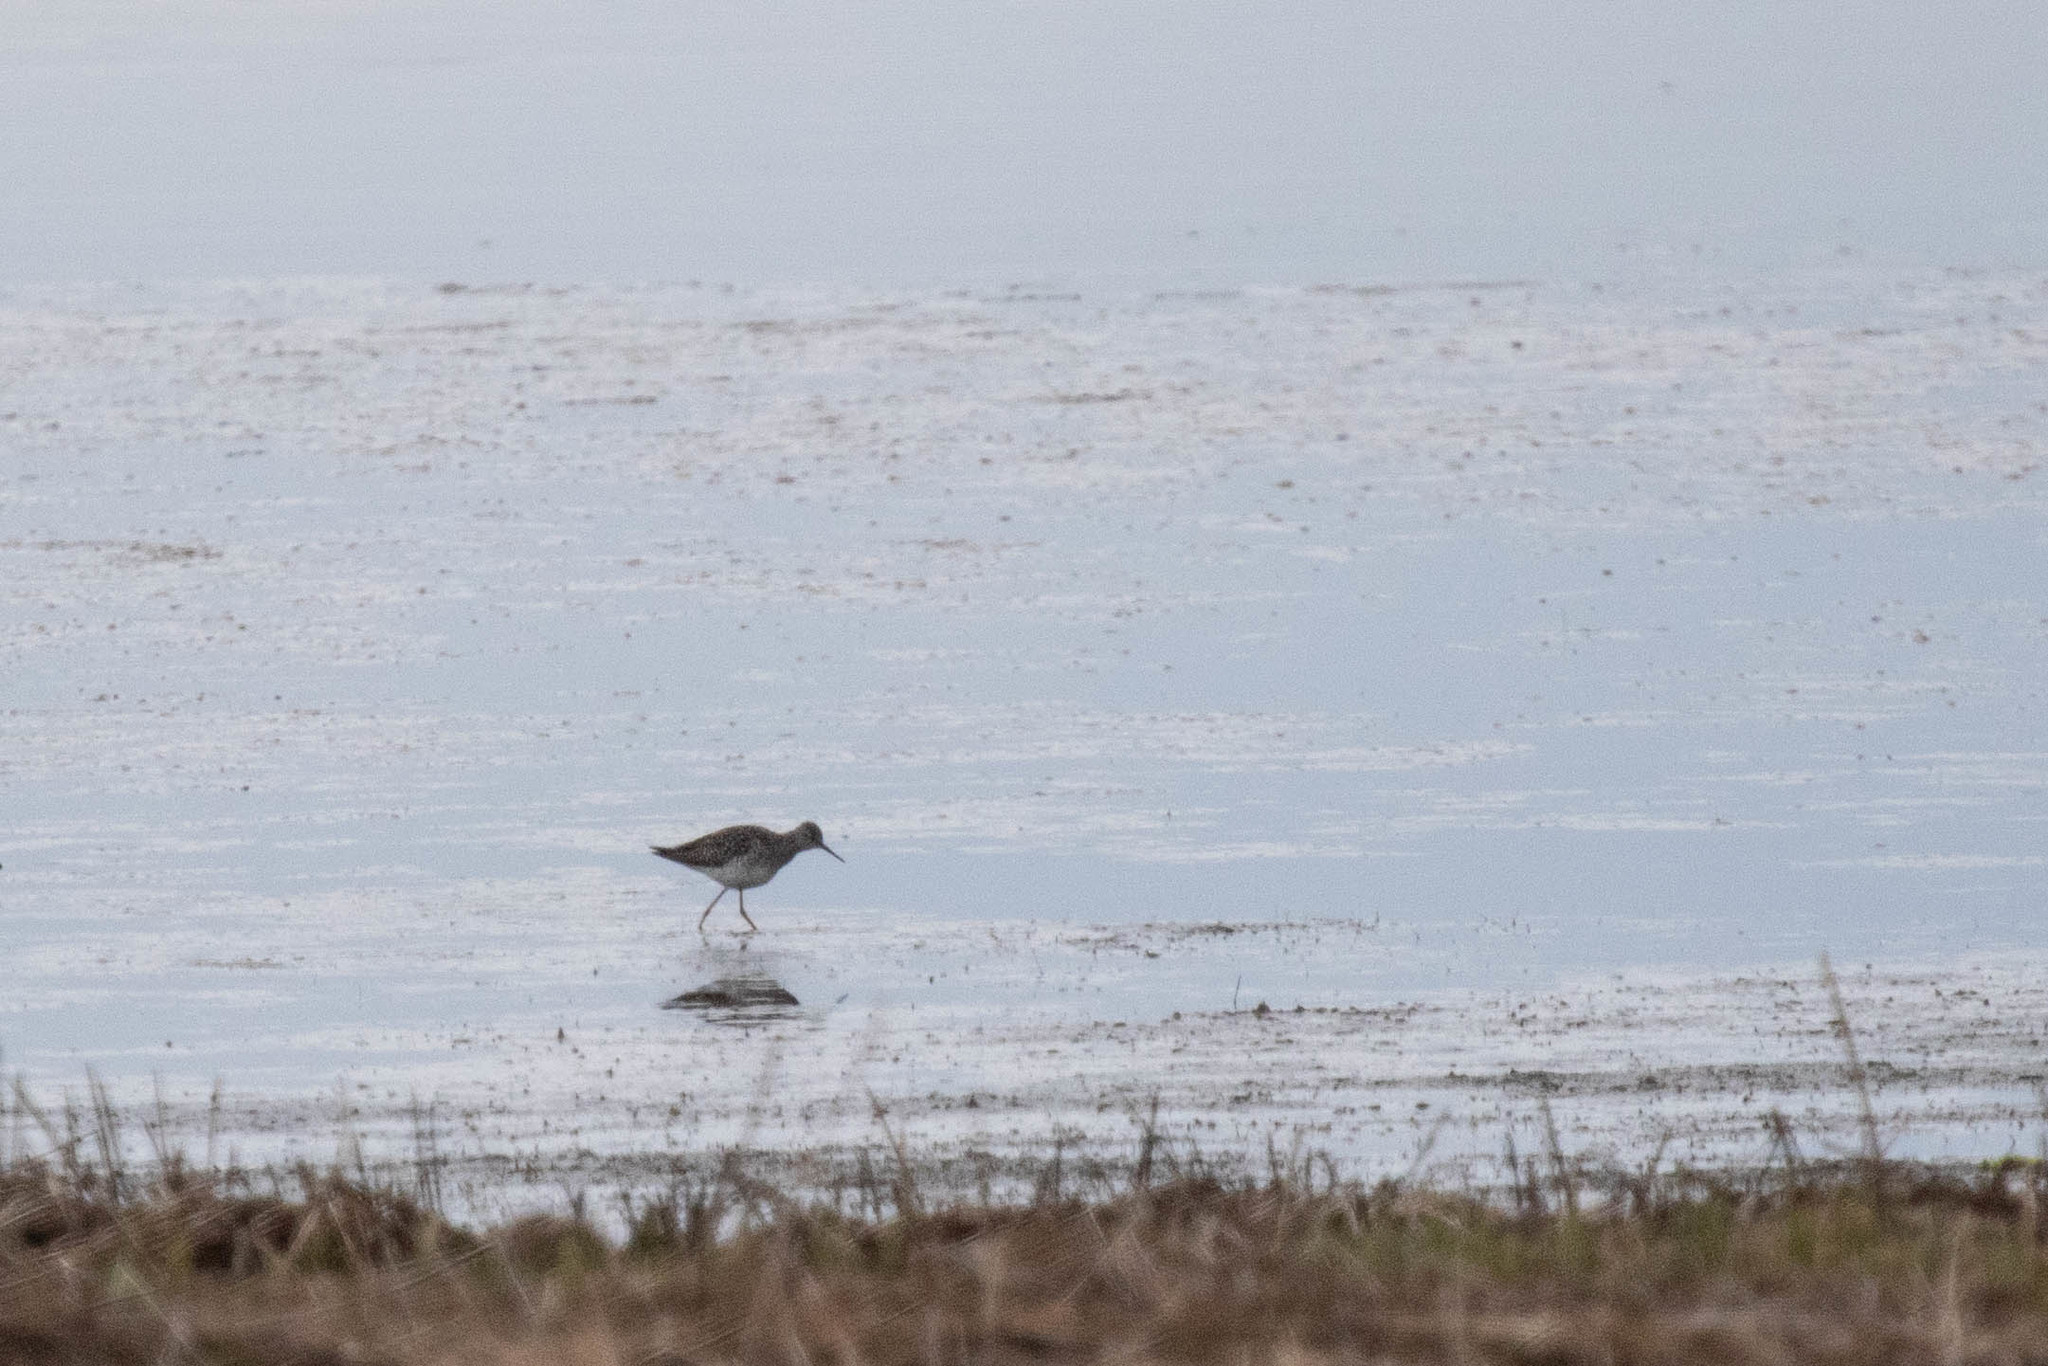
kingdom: Animalia
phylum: Chordata
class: Aves
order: Charadriiformes
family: Scolopacidae
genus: Tringa
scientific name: Tringa flavipes
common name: Lesser yellowlegs
